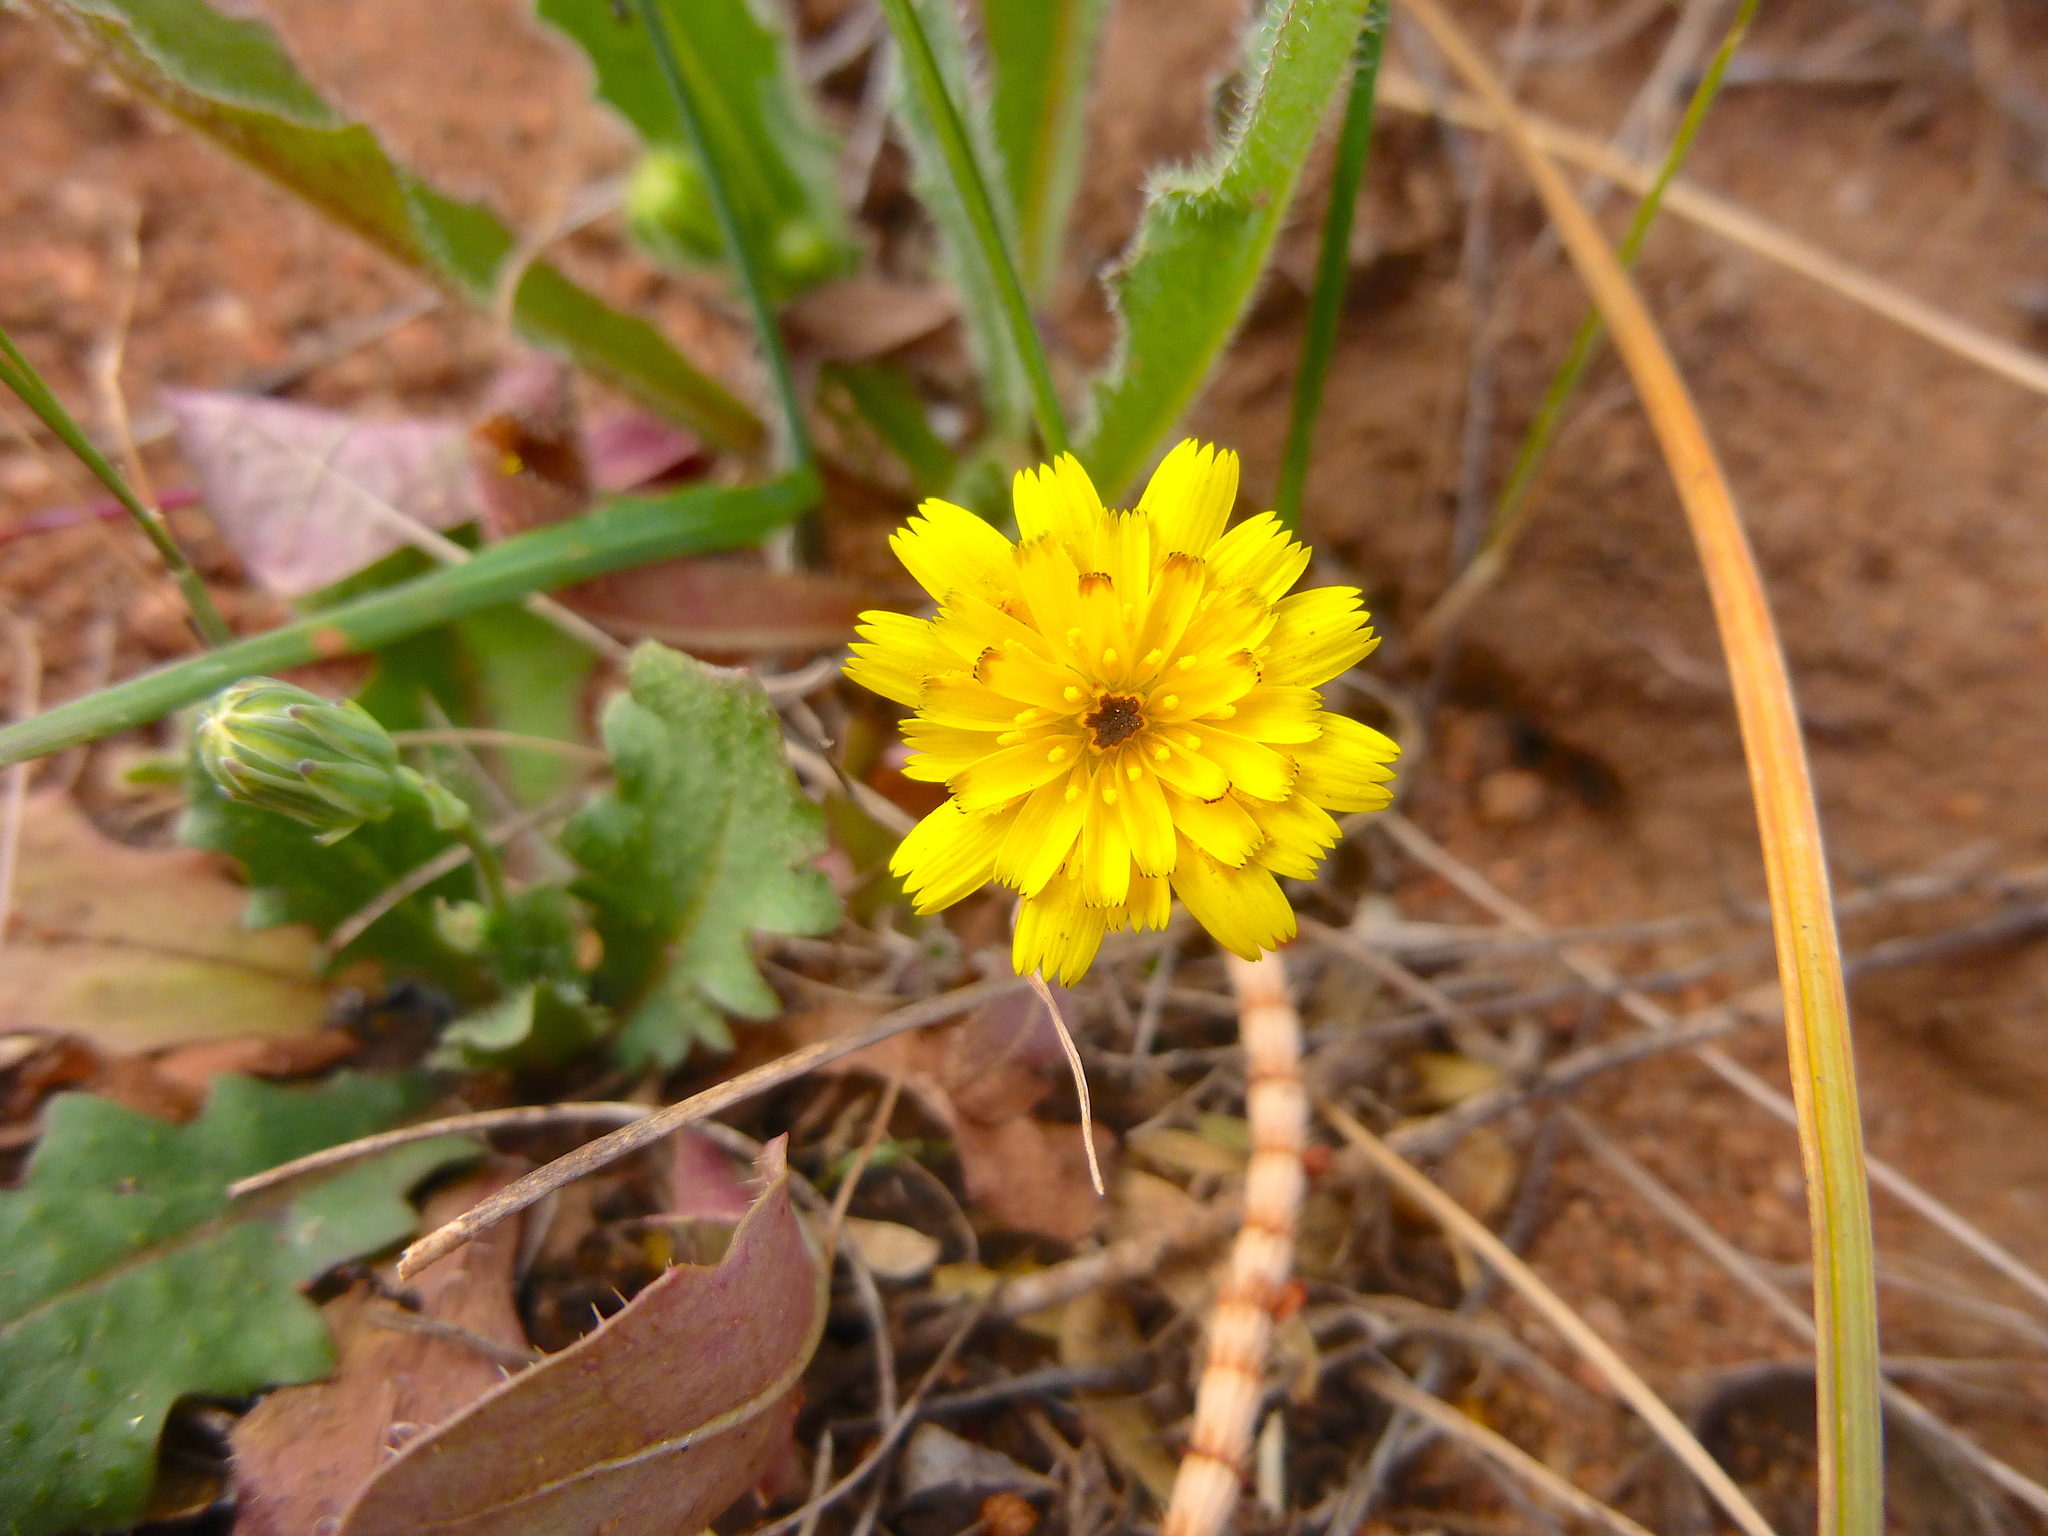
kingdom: Plantae
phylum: Tracheophyta
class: Magnoliopsida
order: Asterales
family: Asteraceae
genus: Hedypnois
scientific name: Hedypnois rhagadioloides
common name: Cretan weed
